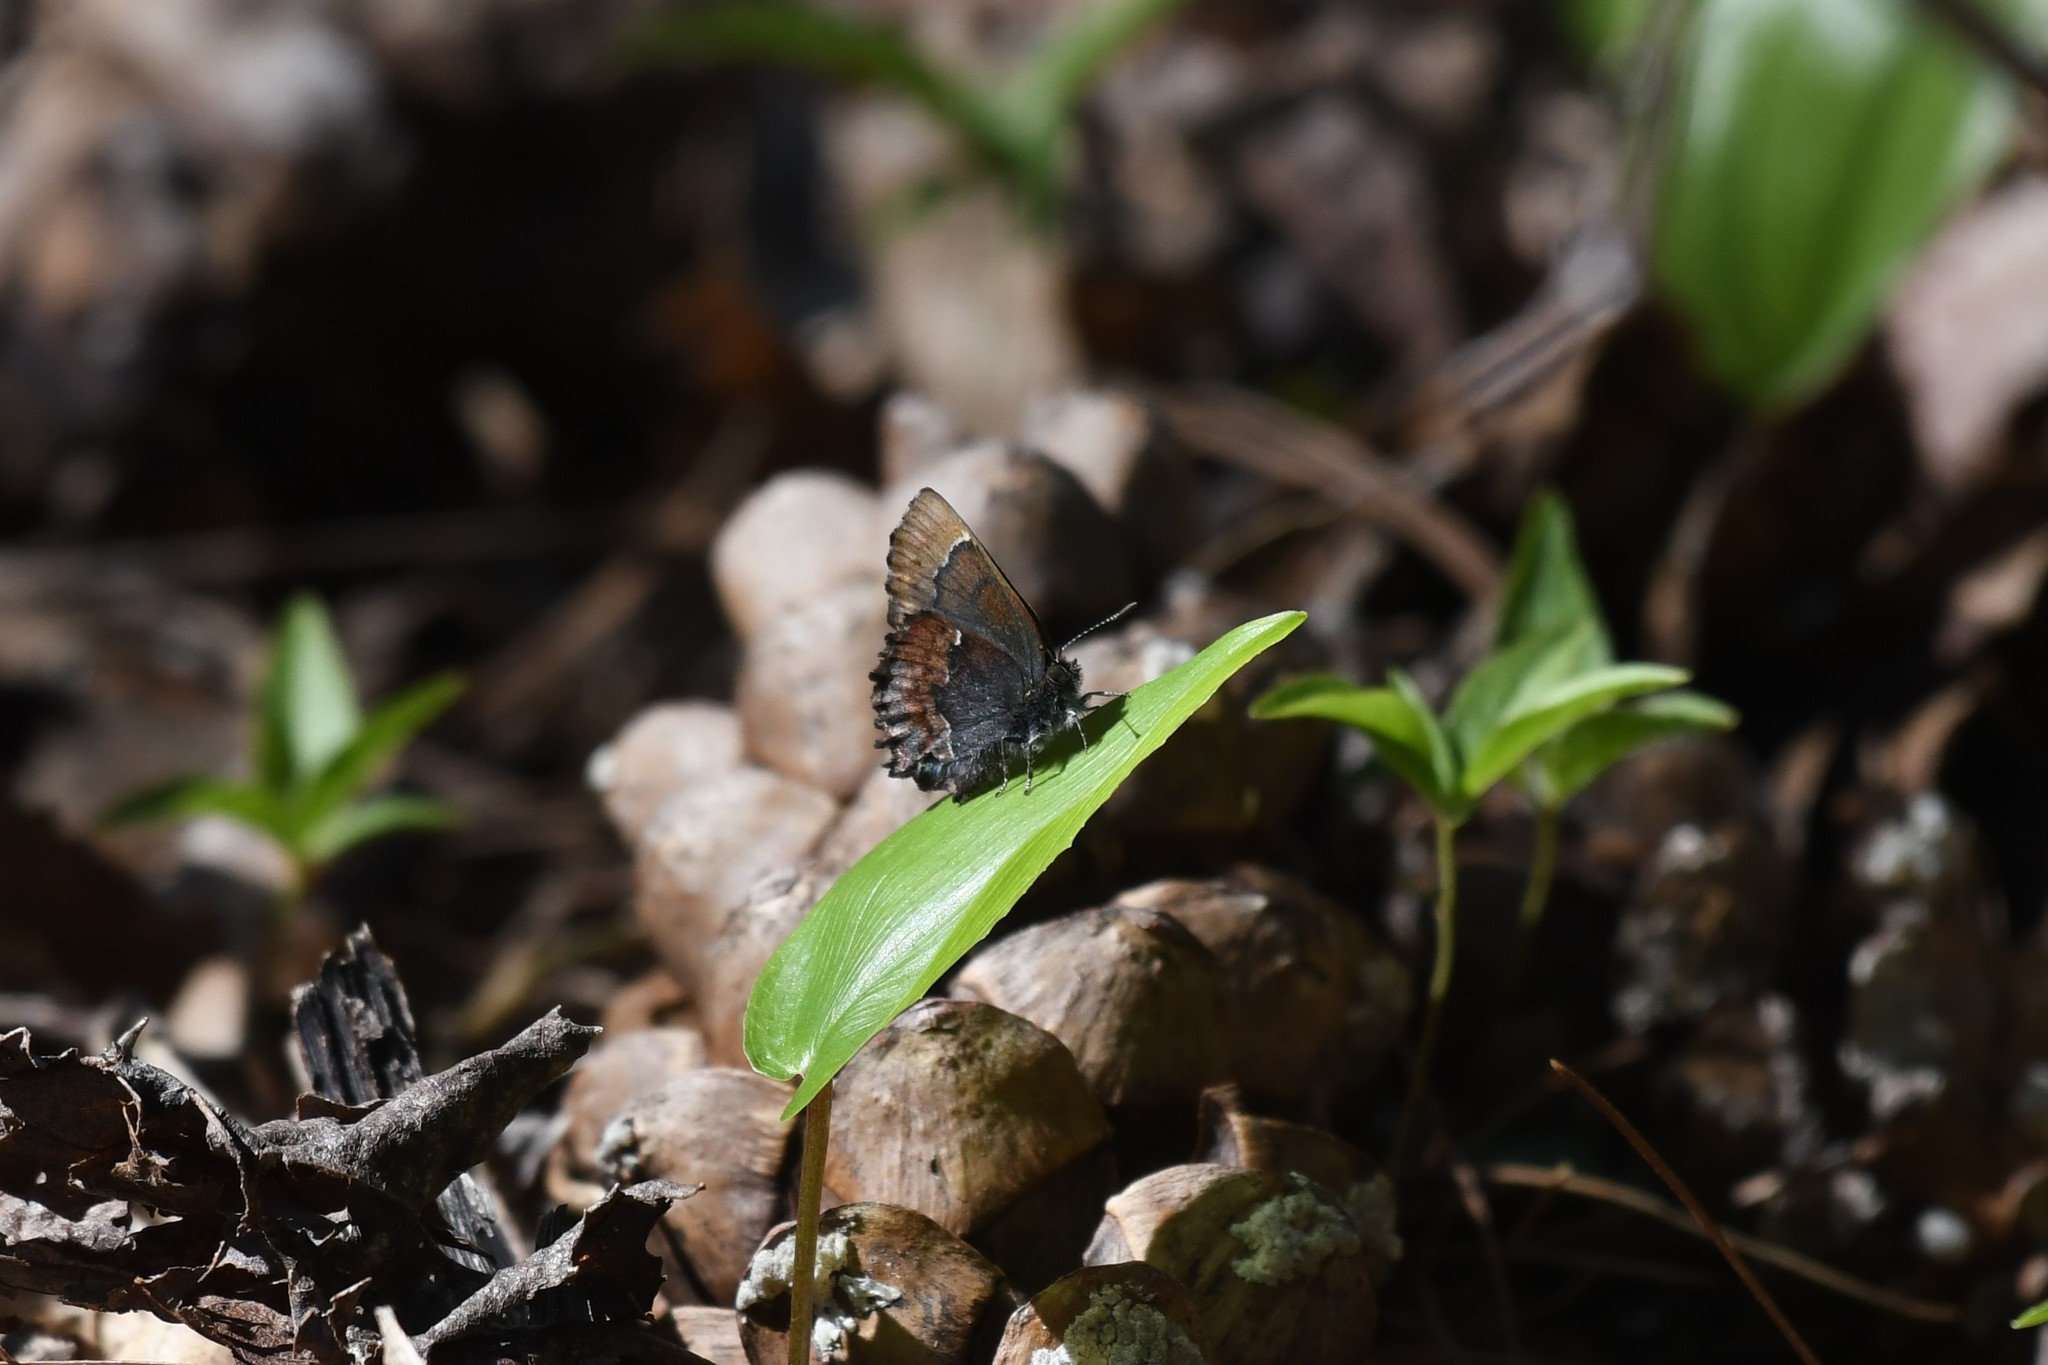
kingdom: Animalia
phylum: Arthropoda
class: Insecta
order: Lepidoptera
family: Lycaenidae
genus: Incisalia
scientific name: Incisalia henrici
